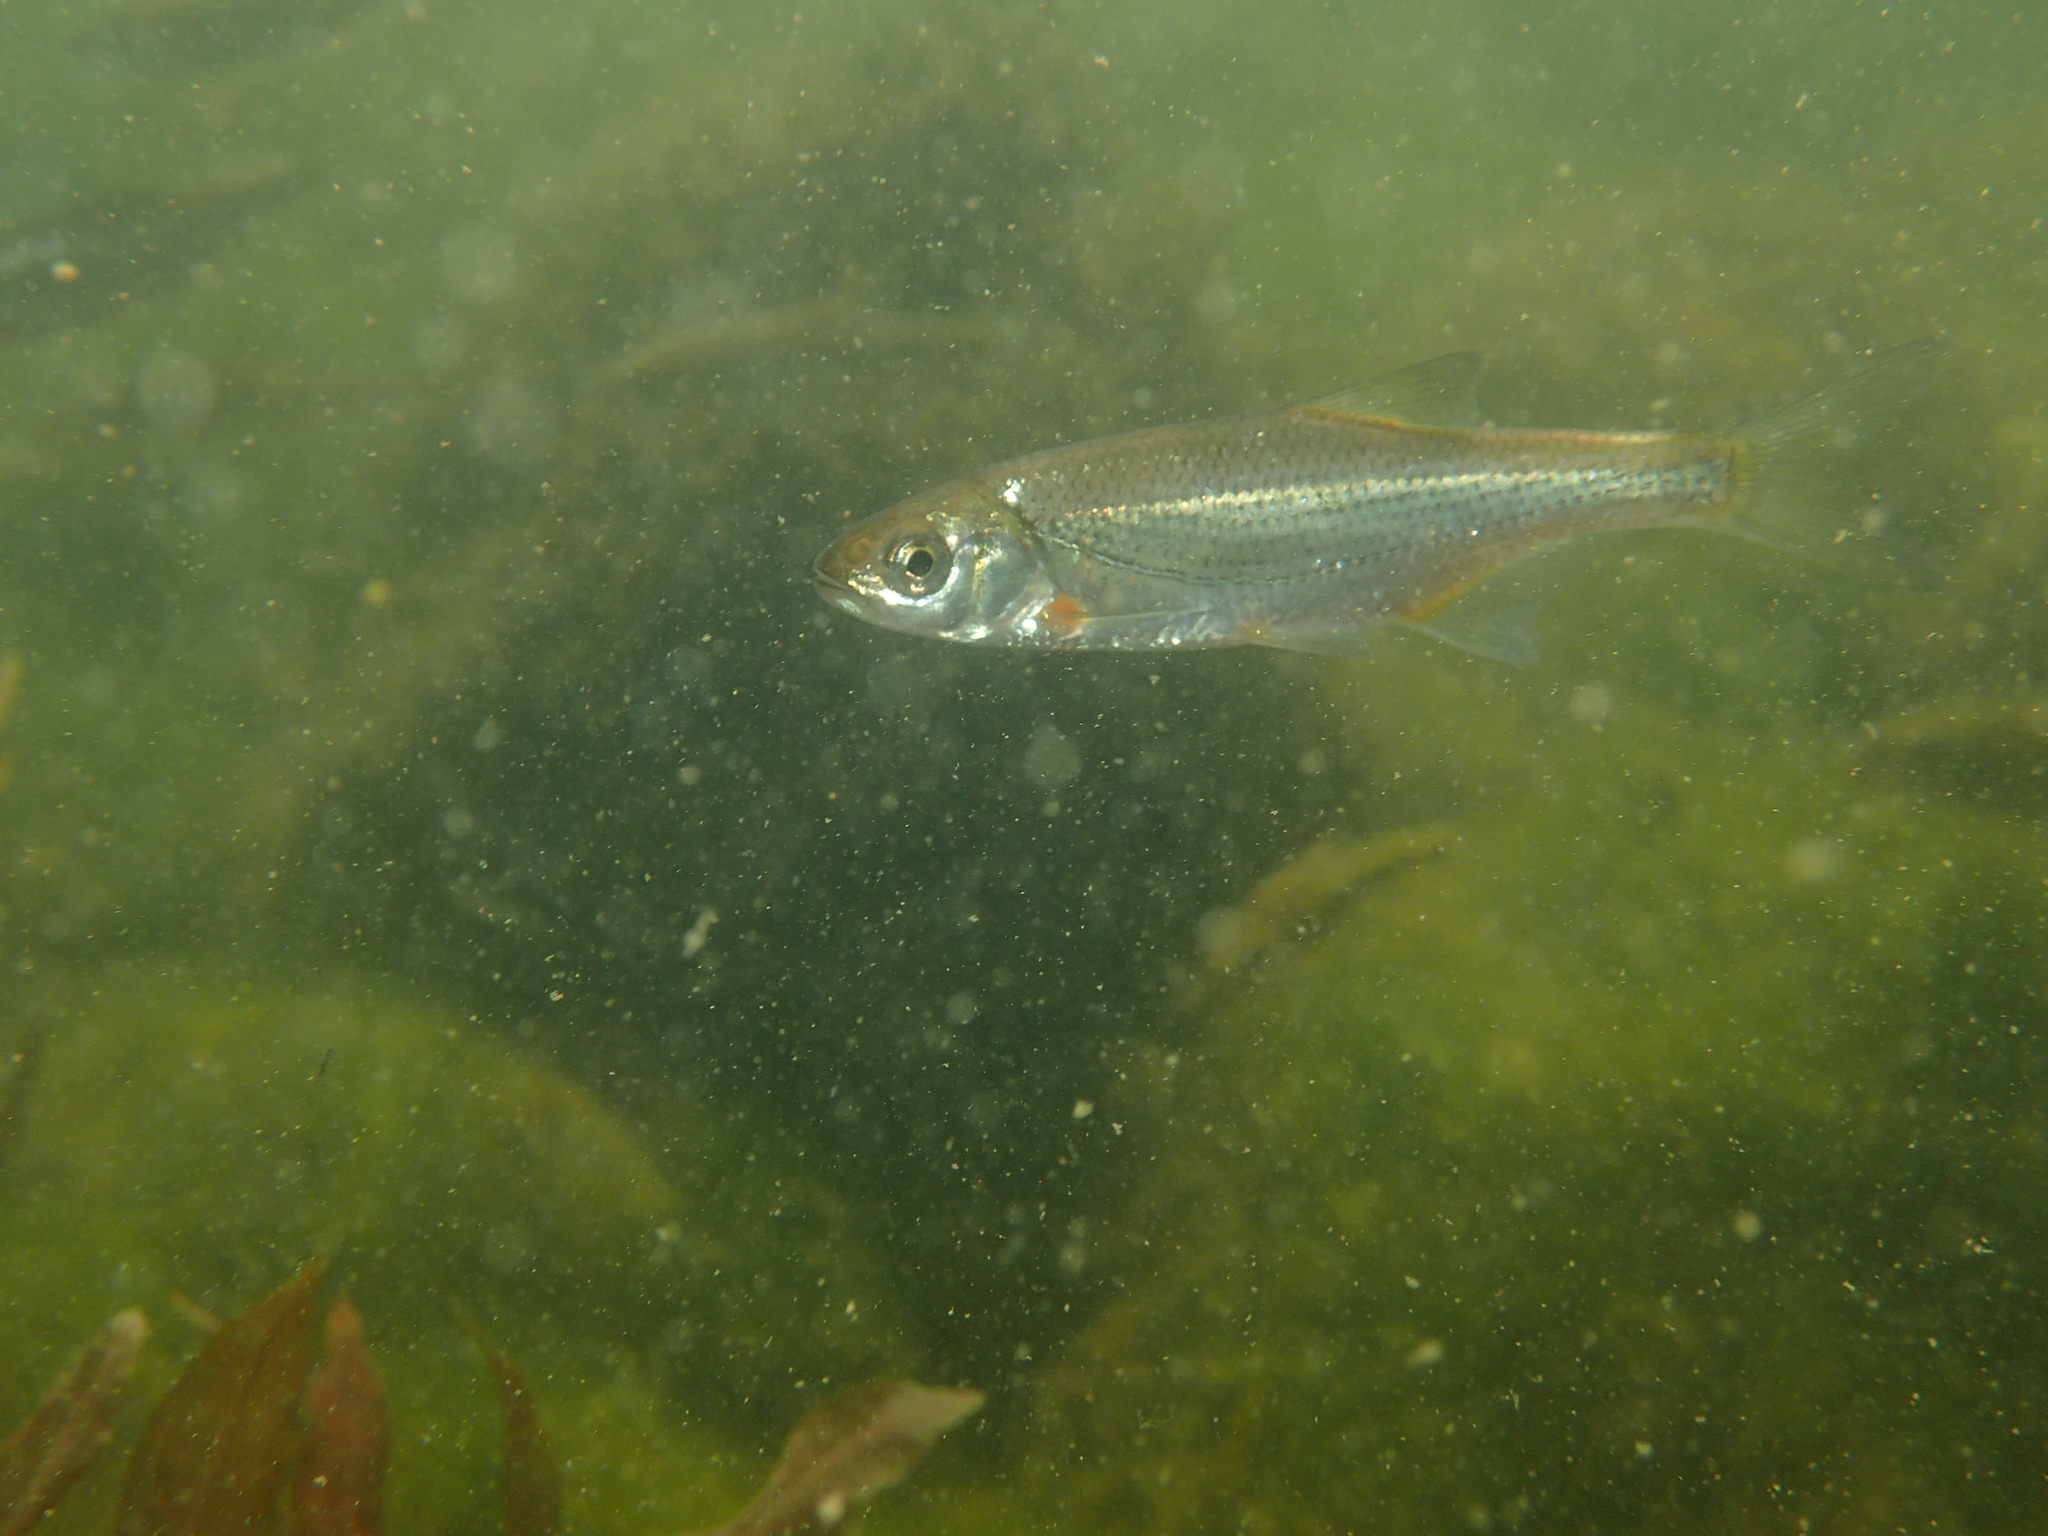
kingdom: Animalia
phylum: Chordata
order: Cypriniformes
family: Cyprinidae
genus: Alburnoides
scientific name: Alburnoides bipunctatus
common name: Spirlin
